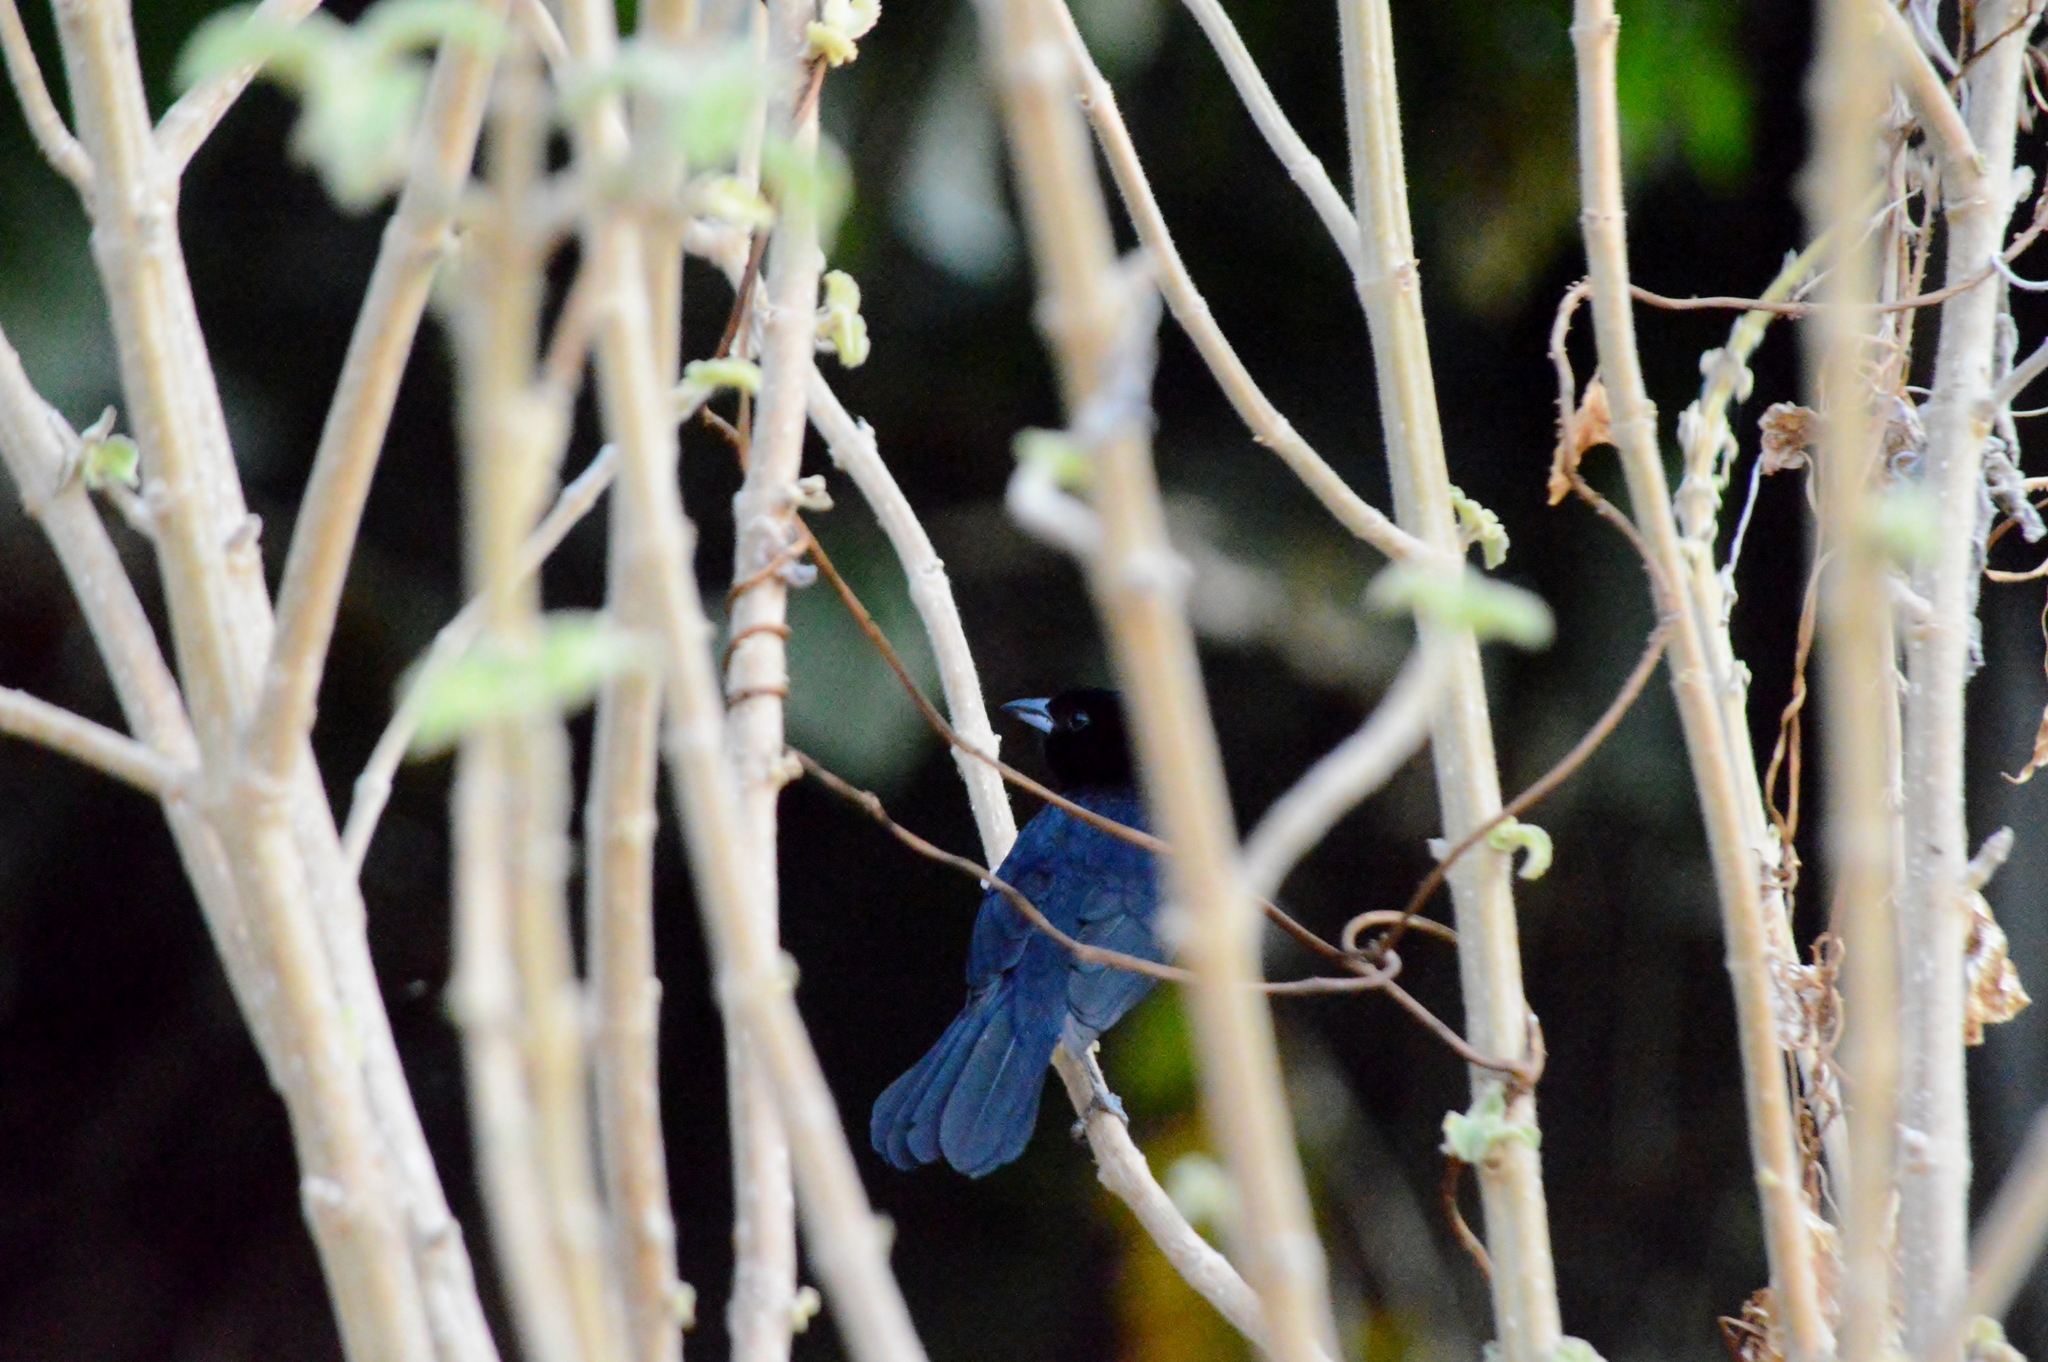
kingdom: Animalia
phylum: Chordata
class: Aves
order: Passeriformes
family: Thraupidae
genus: Tachyphonus
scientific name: Tachyphonus rufus
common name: White-lined tanager
